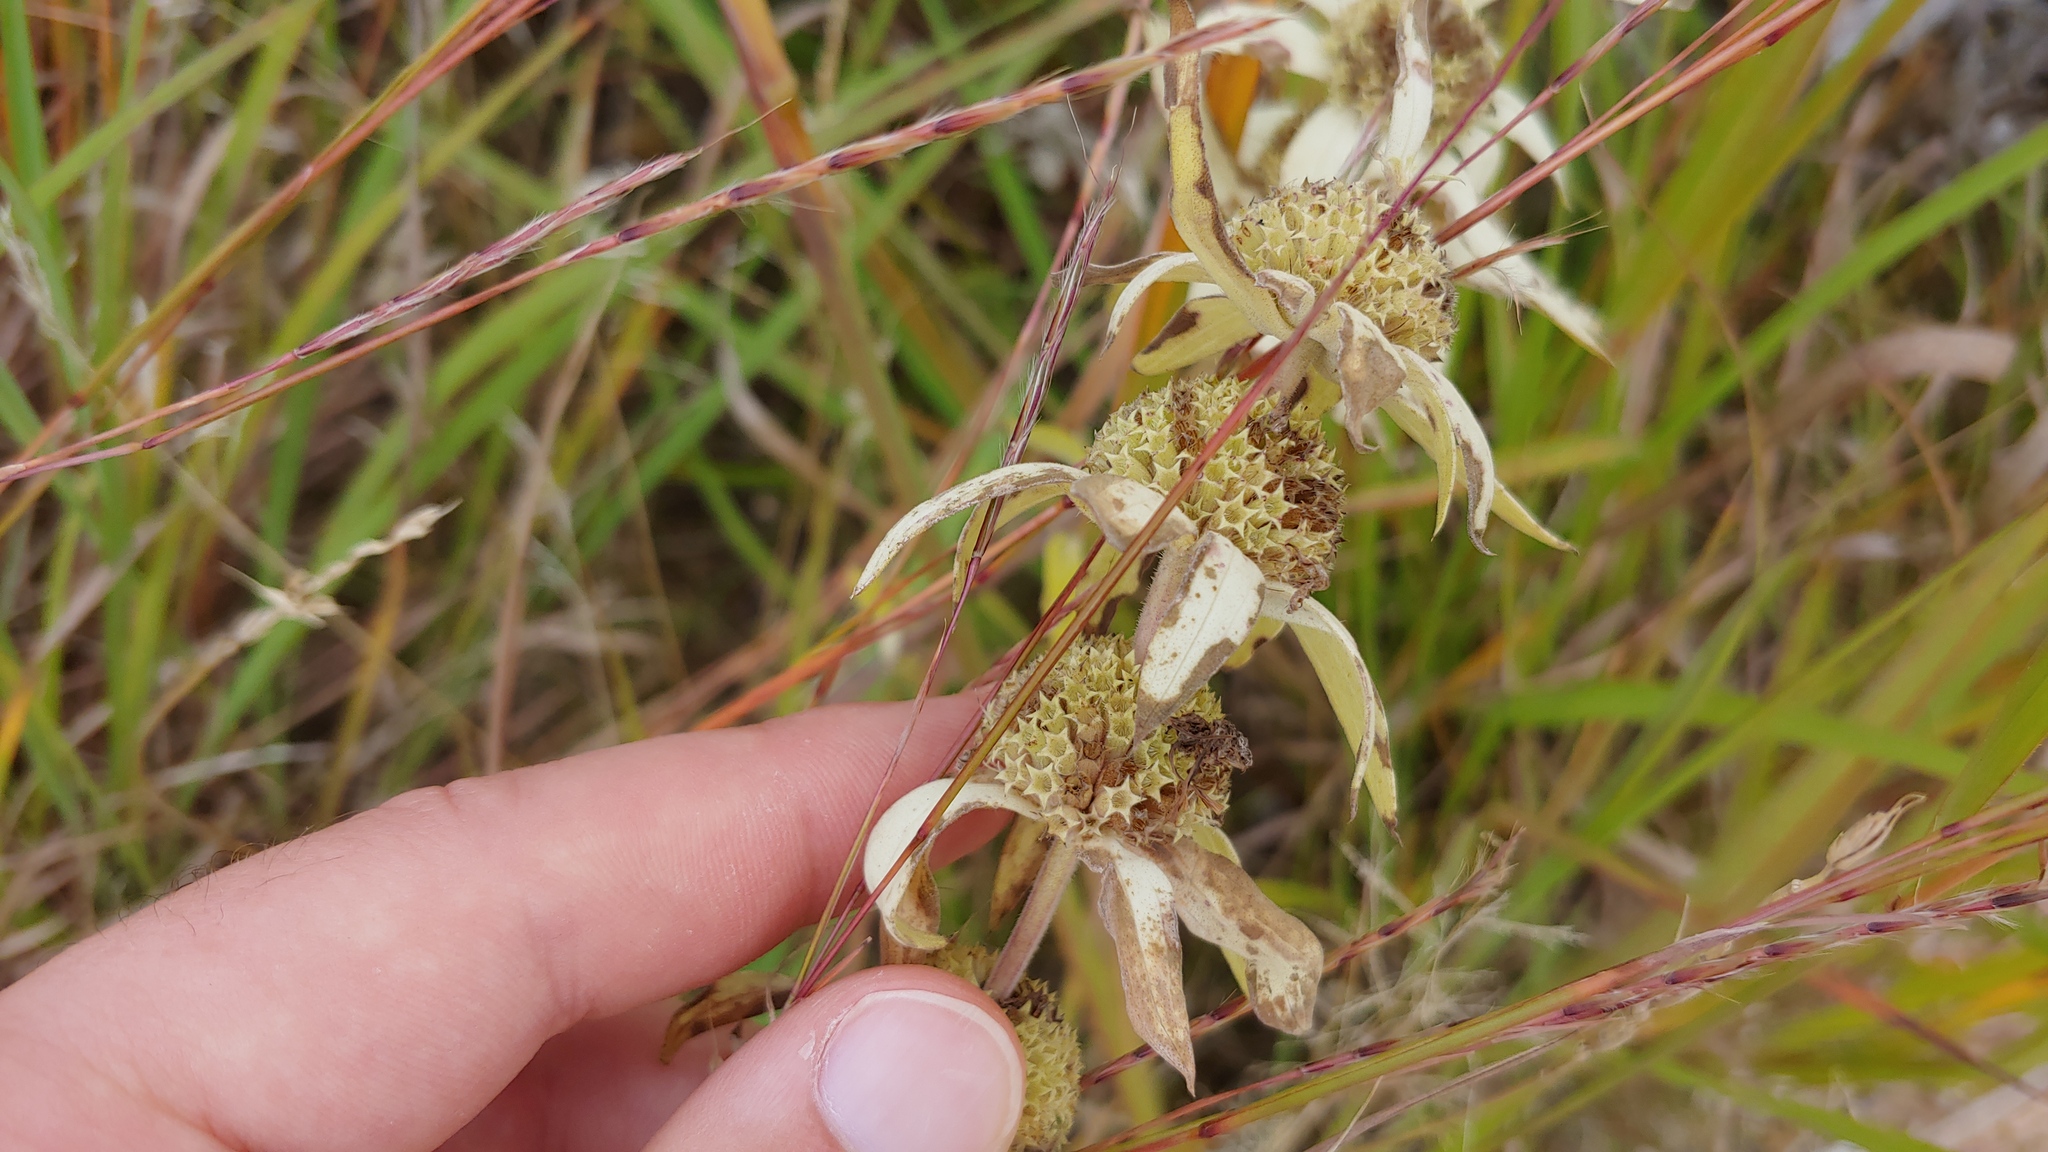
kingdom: Plantae
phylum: Tracheophyta
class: Magnoliopsida
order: Lamiales
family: Lamiaceae
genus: Monarda
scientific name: Monarda punctata
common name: Dotted monarda
